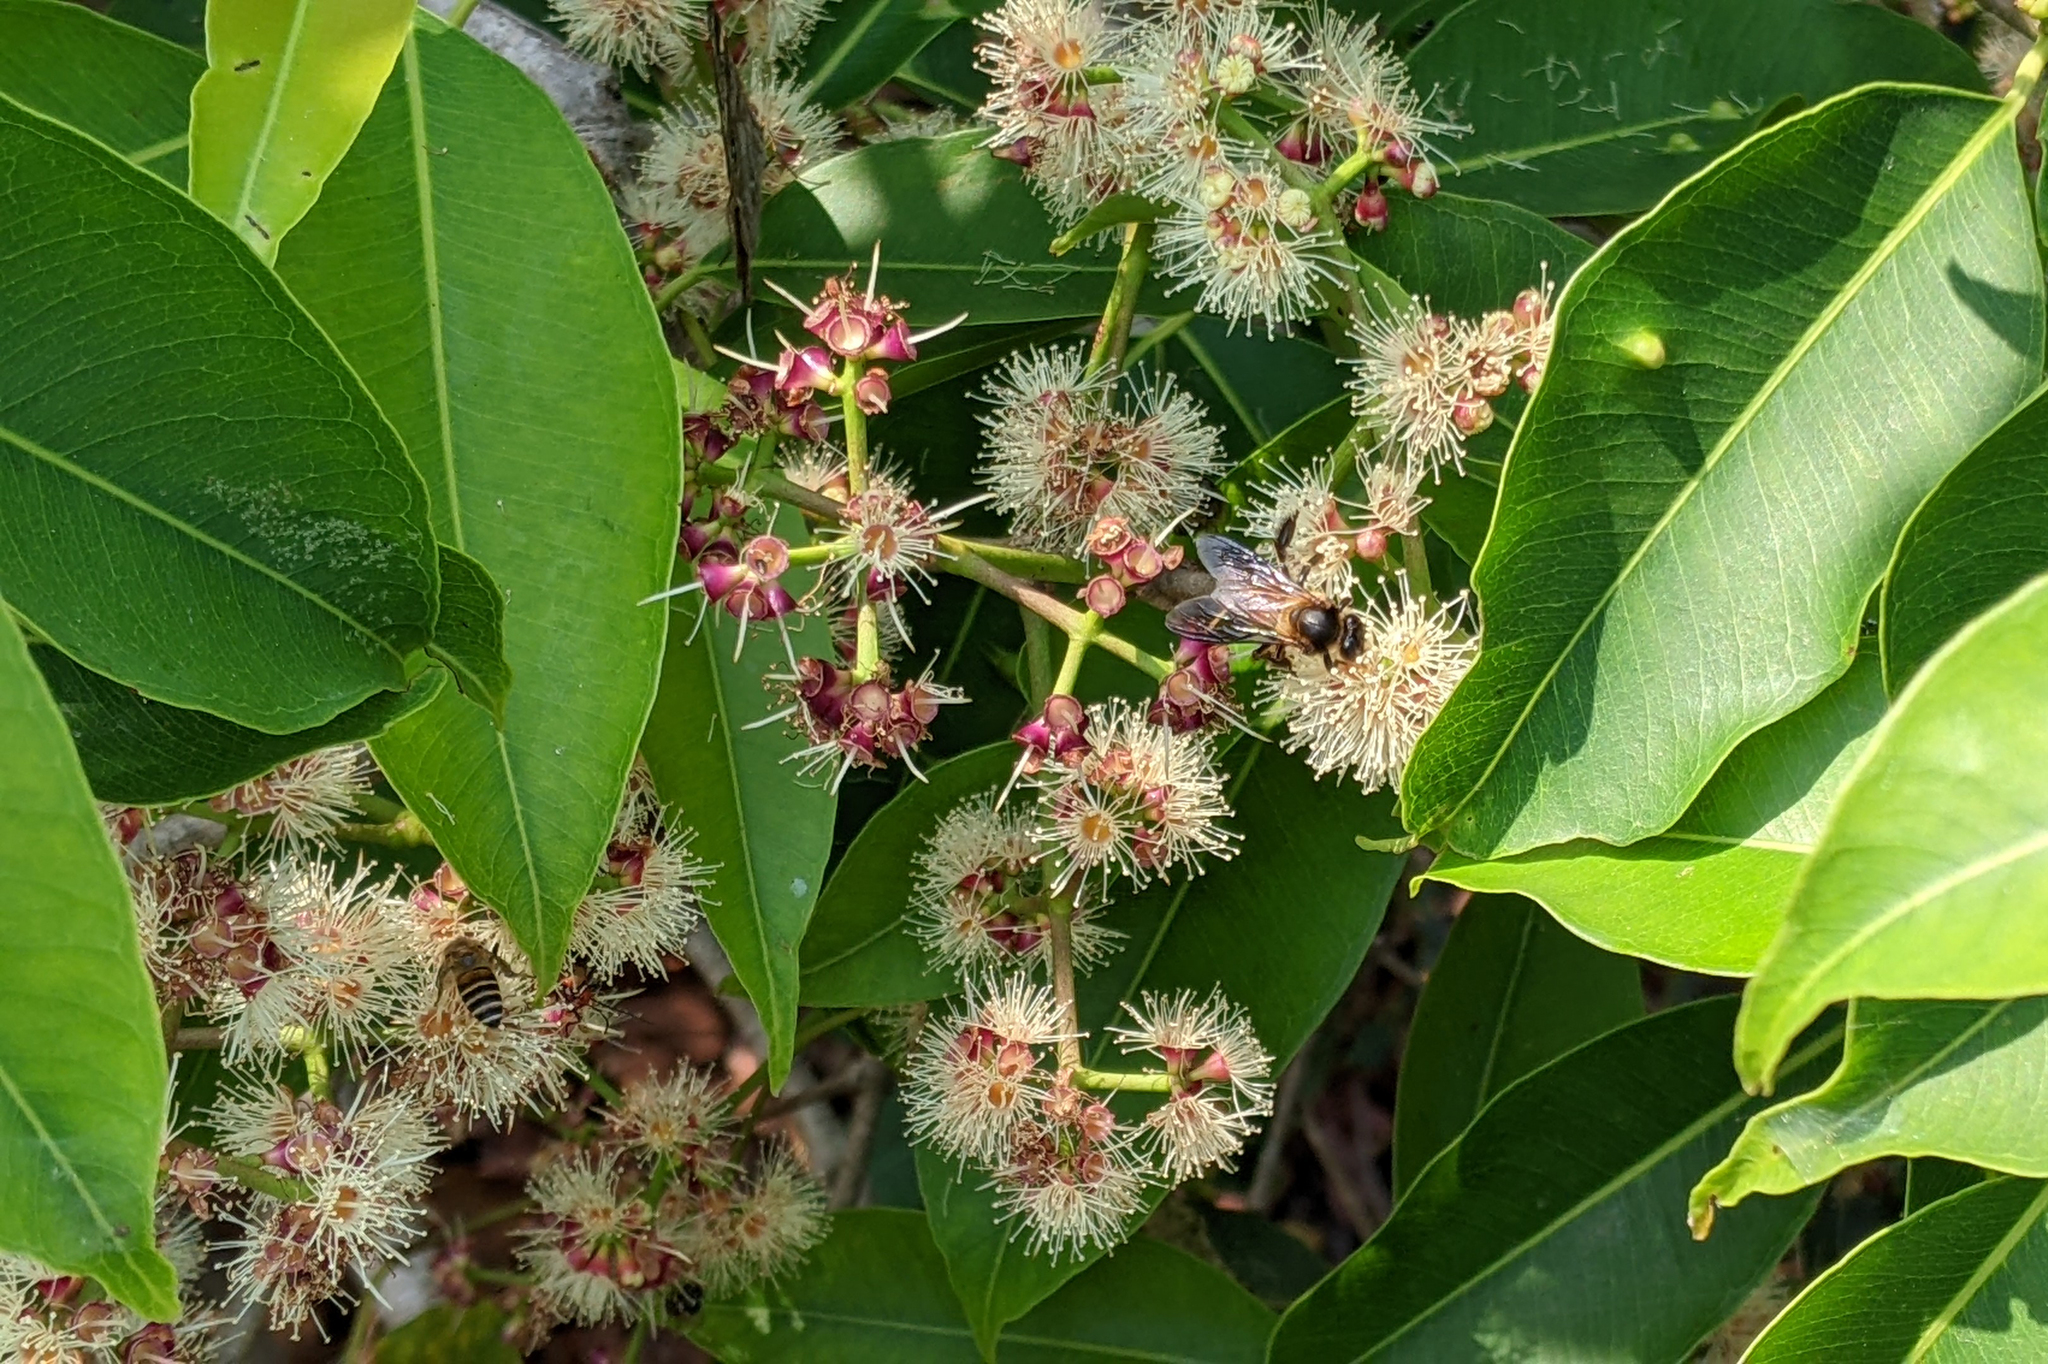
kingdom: Plantae
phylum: Tracheophyta
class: Magnoliopsida
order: Myrtales
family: Myrtaceae
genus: Syzygium
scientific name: Syzygium cumini
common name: Java plum
